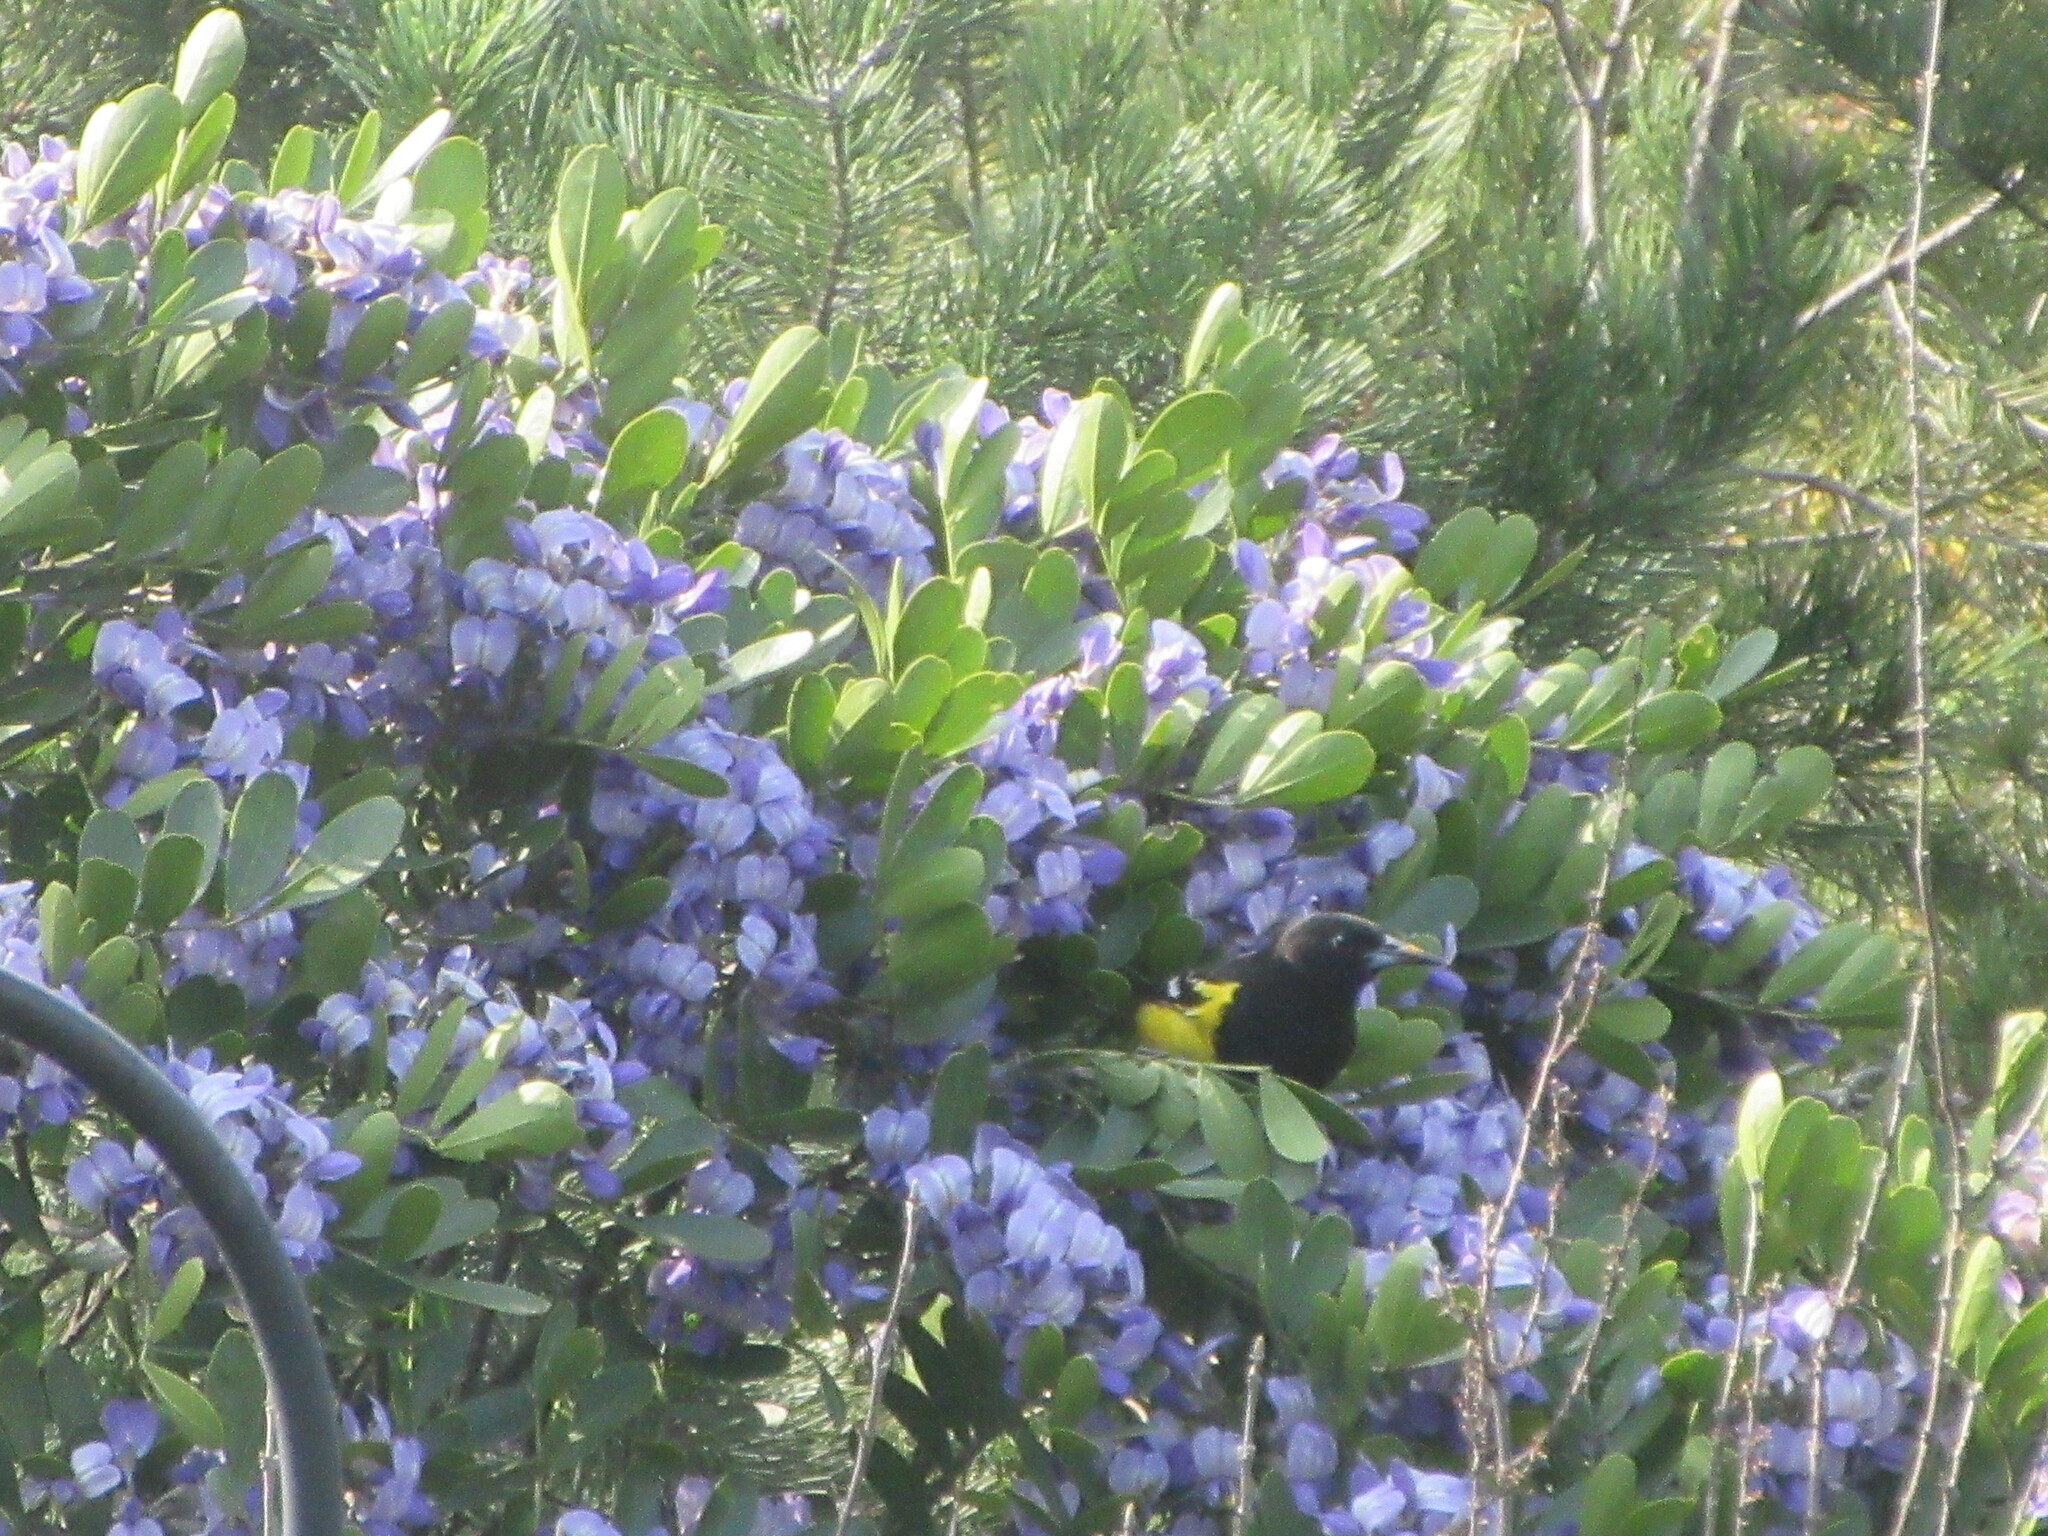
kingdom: Animalia
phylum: Chordata
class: Aves
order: Passeriformes
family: Icteridae
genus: Icterus
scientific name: Icterus parisorum
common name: Scott's oriole
